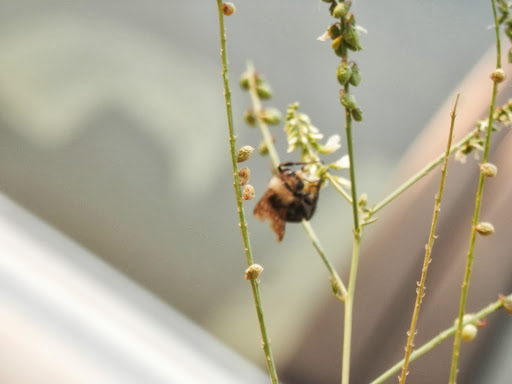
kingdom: Animalia
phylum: Arthropoda
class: Insecta
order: Hymenoptera
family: Apidae
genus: Bombus
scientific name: Bombus vosnesenskii
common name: Vosnesensky bumble bee
